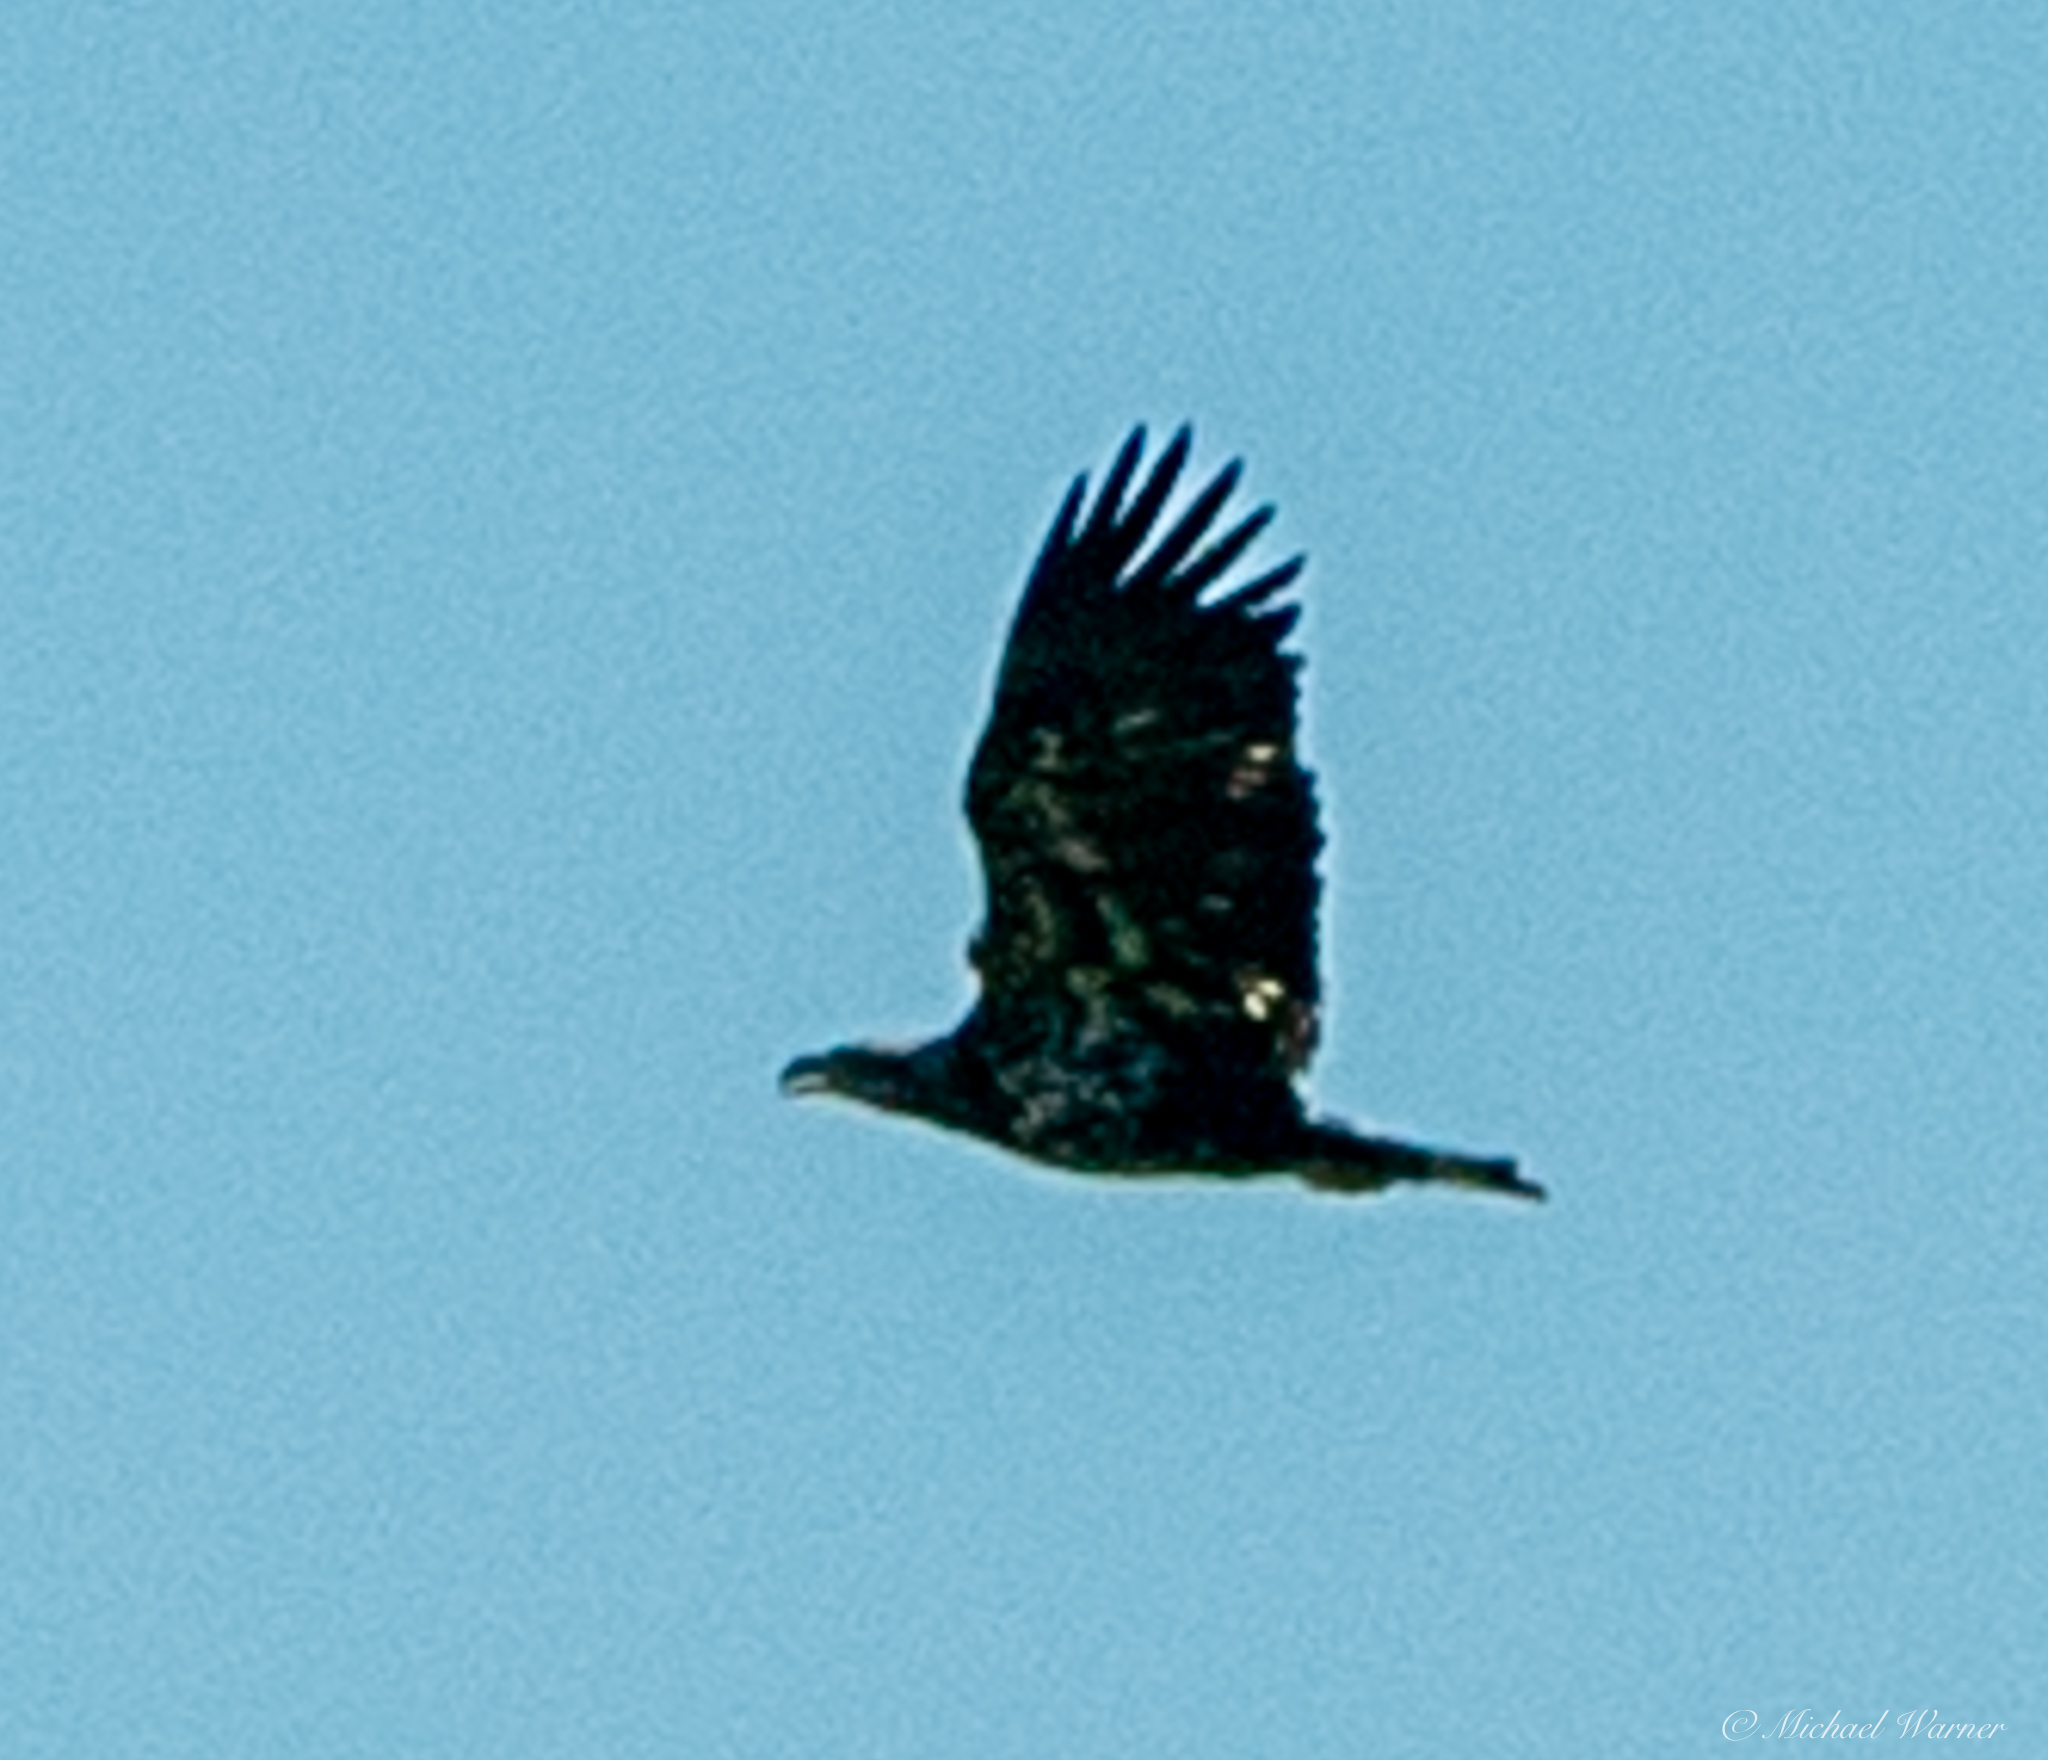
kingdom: Animalia
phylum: Chordata
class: Aves
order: Accipitriformes
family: Accipitridae
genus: Haliaeetus
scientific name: Haliaeetus leucocephalus
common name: Bald eagle
